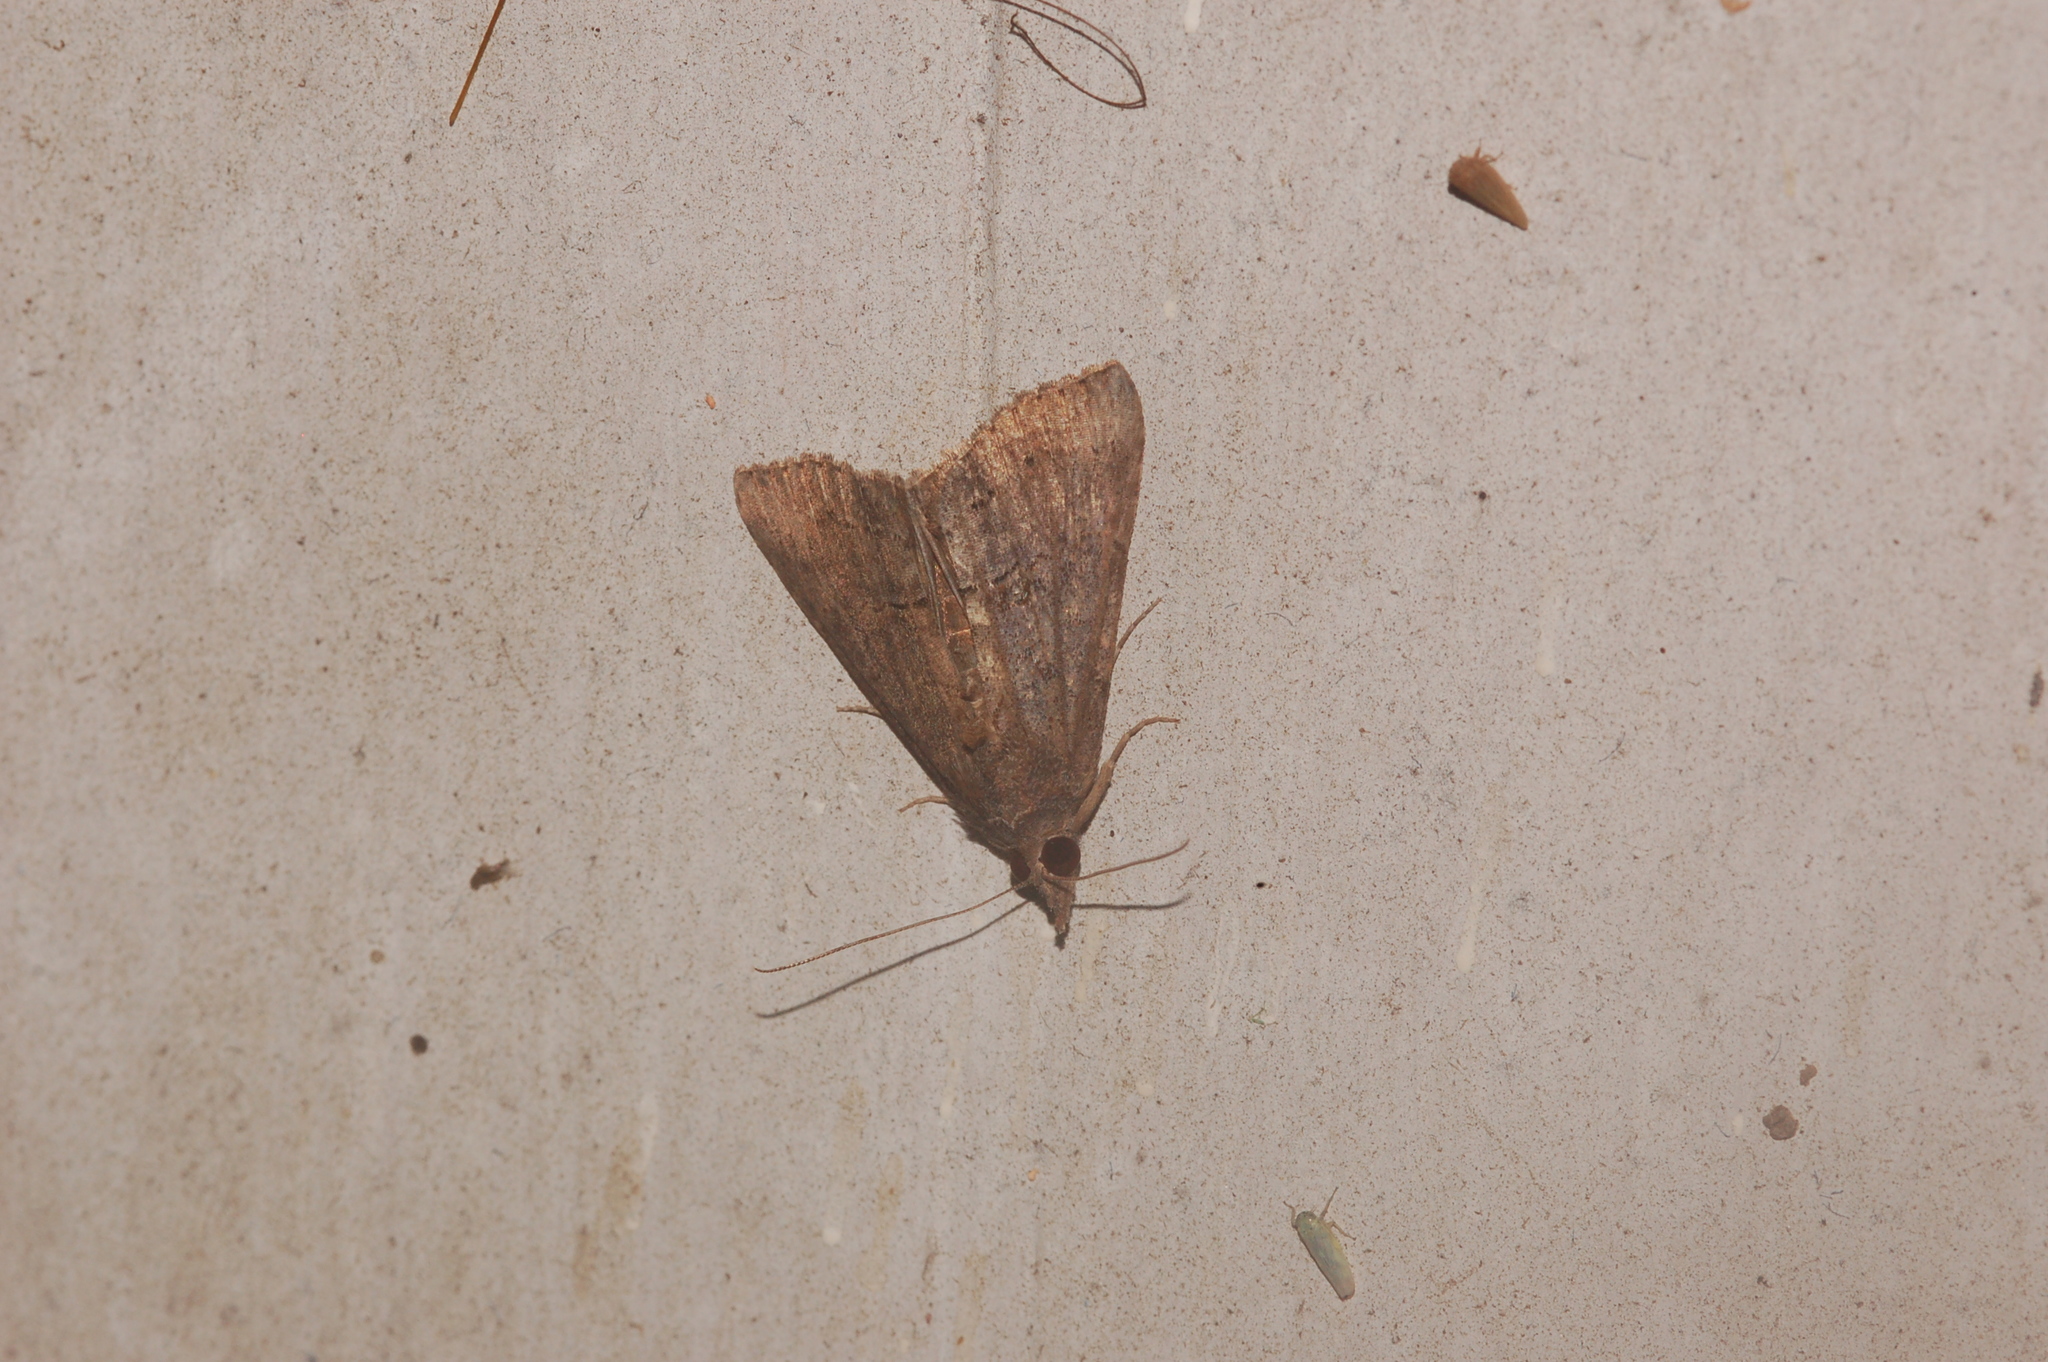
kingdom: Animalia
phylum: Arthropoda
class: Insecta
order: Lepidoptera
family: Erebidae
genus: Hypena
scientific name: Hypena scabra
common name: Green cloverworm
